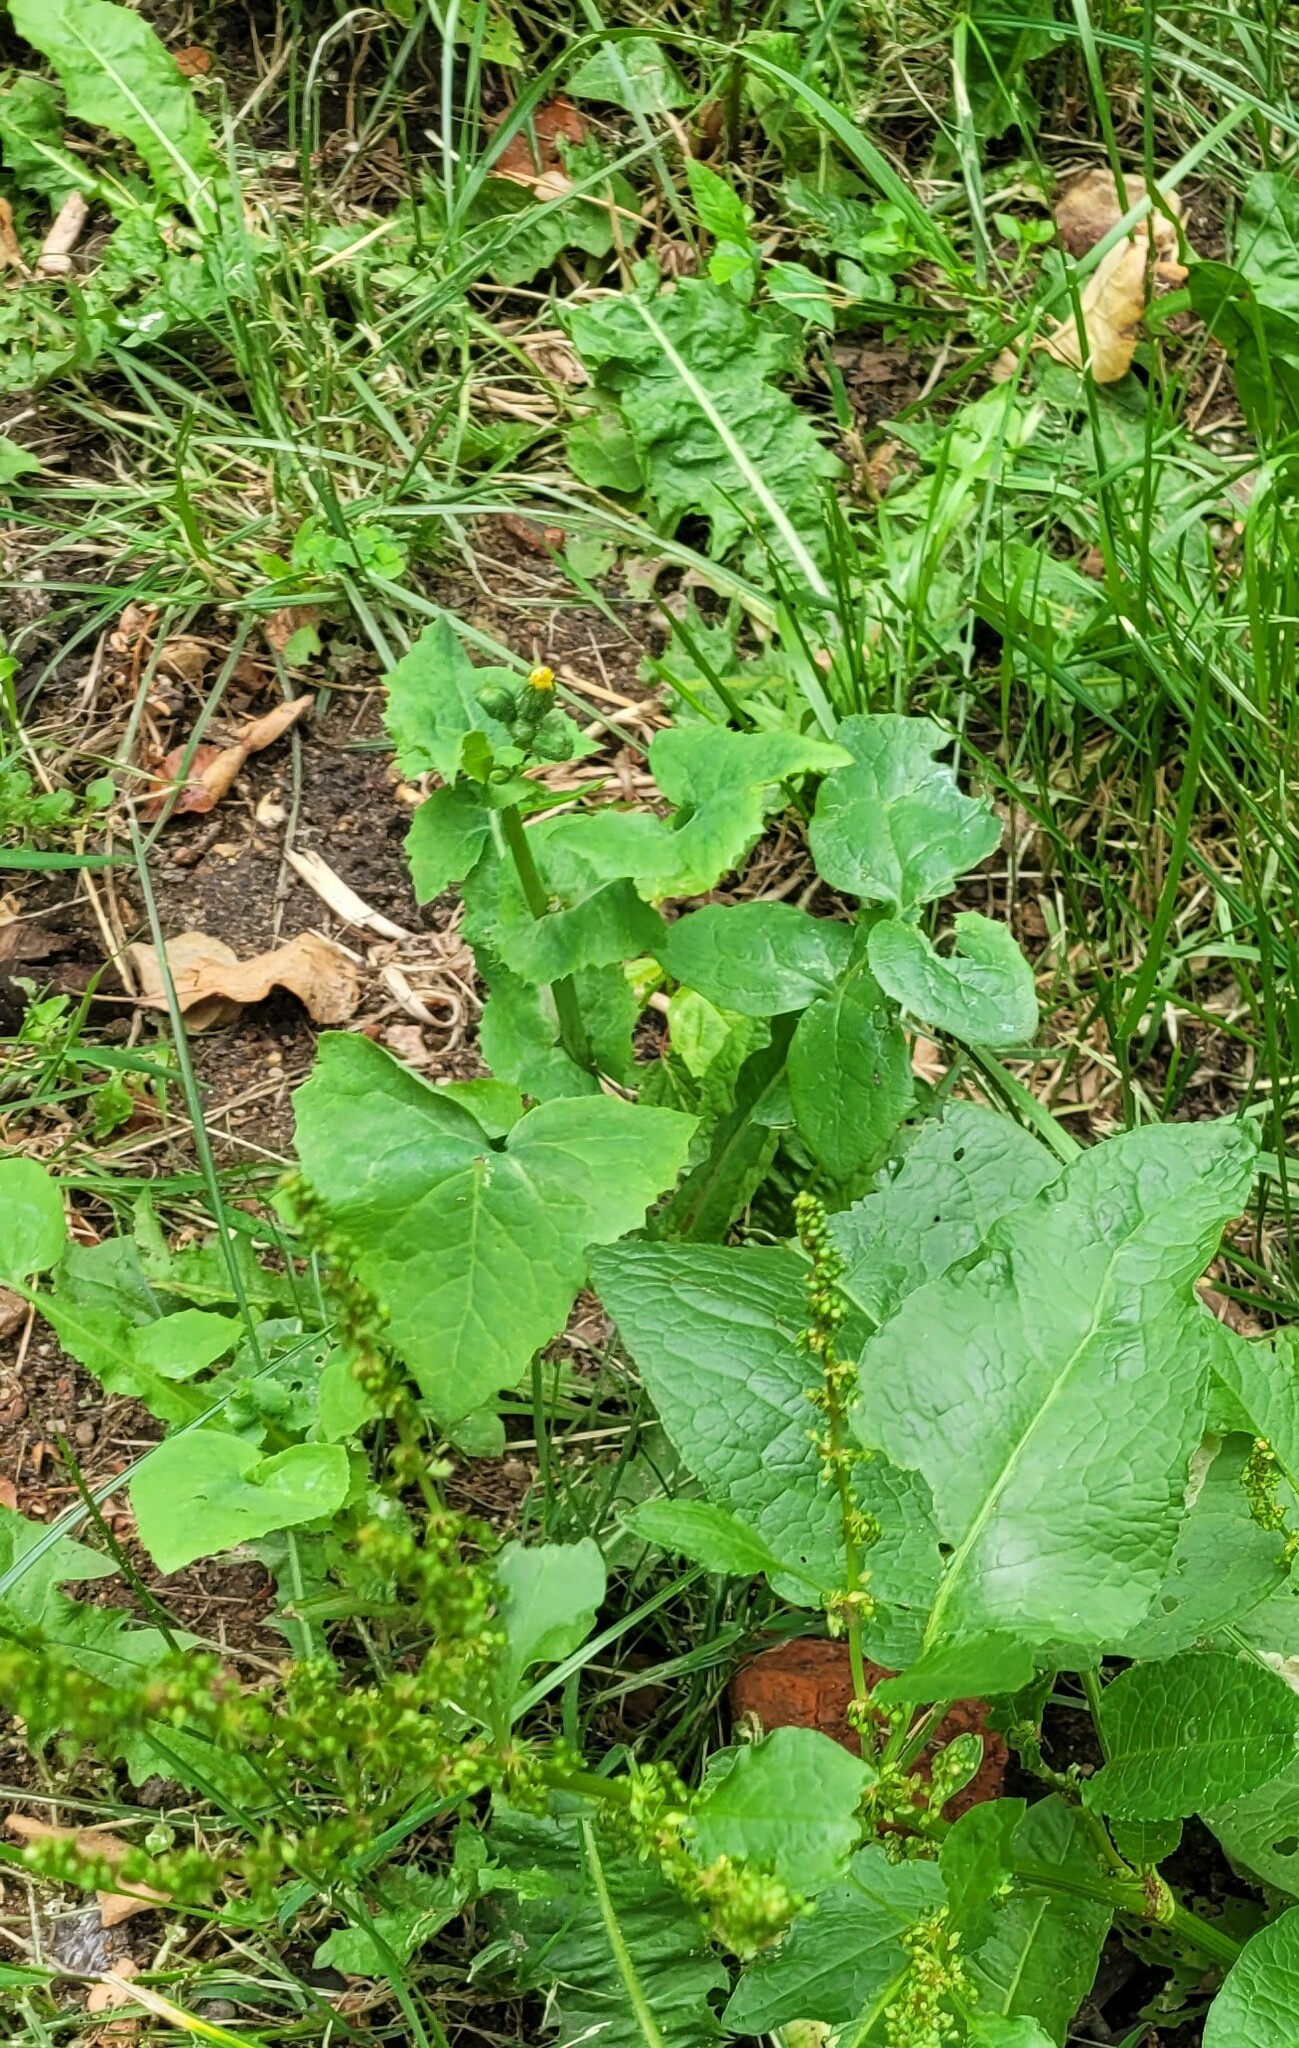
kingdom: Plantae
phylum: Tracheophyta
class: Magnoliopsida
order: Asterales
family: Asteraceae
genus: Sonchus
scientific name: Sonchus oleraceus
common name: Common sowthistle
